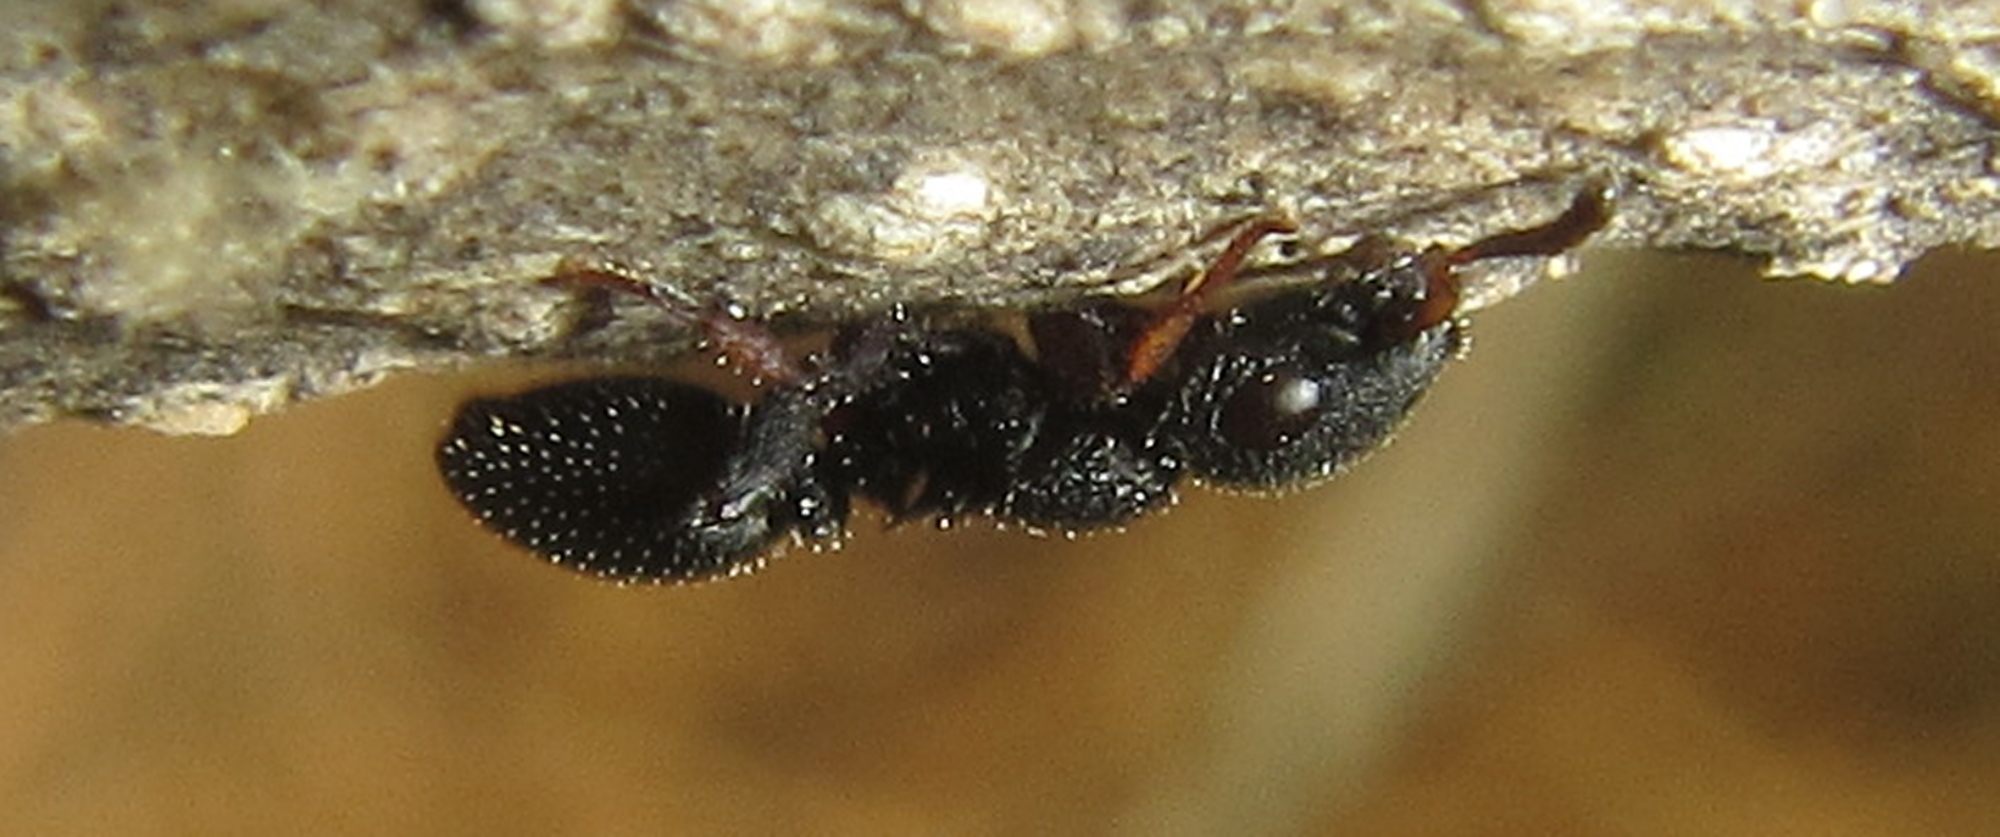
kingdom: Animalia
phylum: Arthropoda
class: Insecta
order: Hymenoptera
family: Formicidae
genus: Cataulacus
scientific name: Cataulacus intrudens
